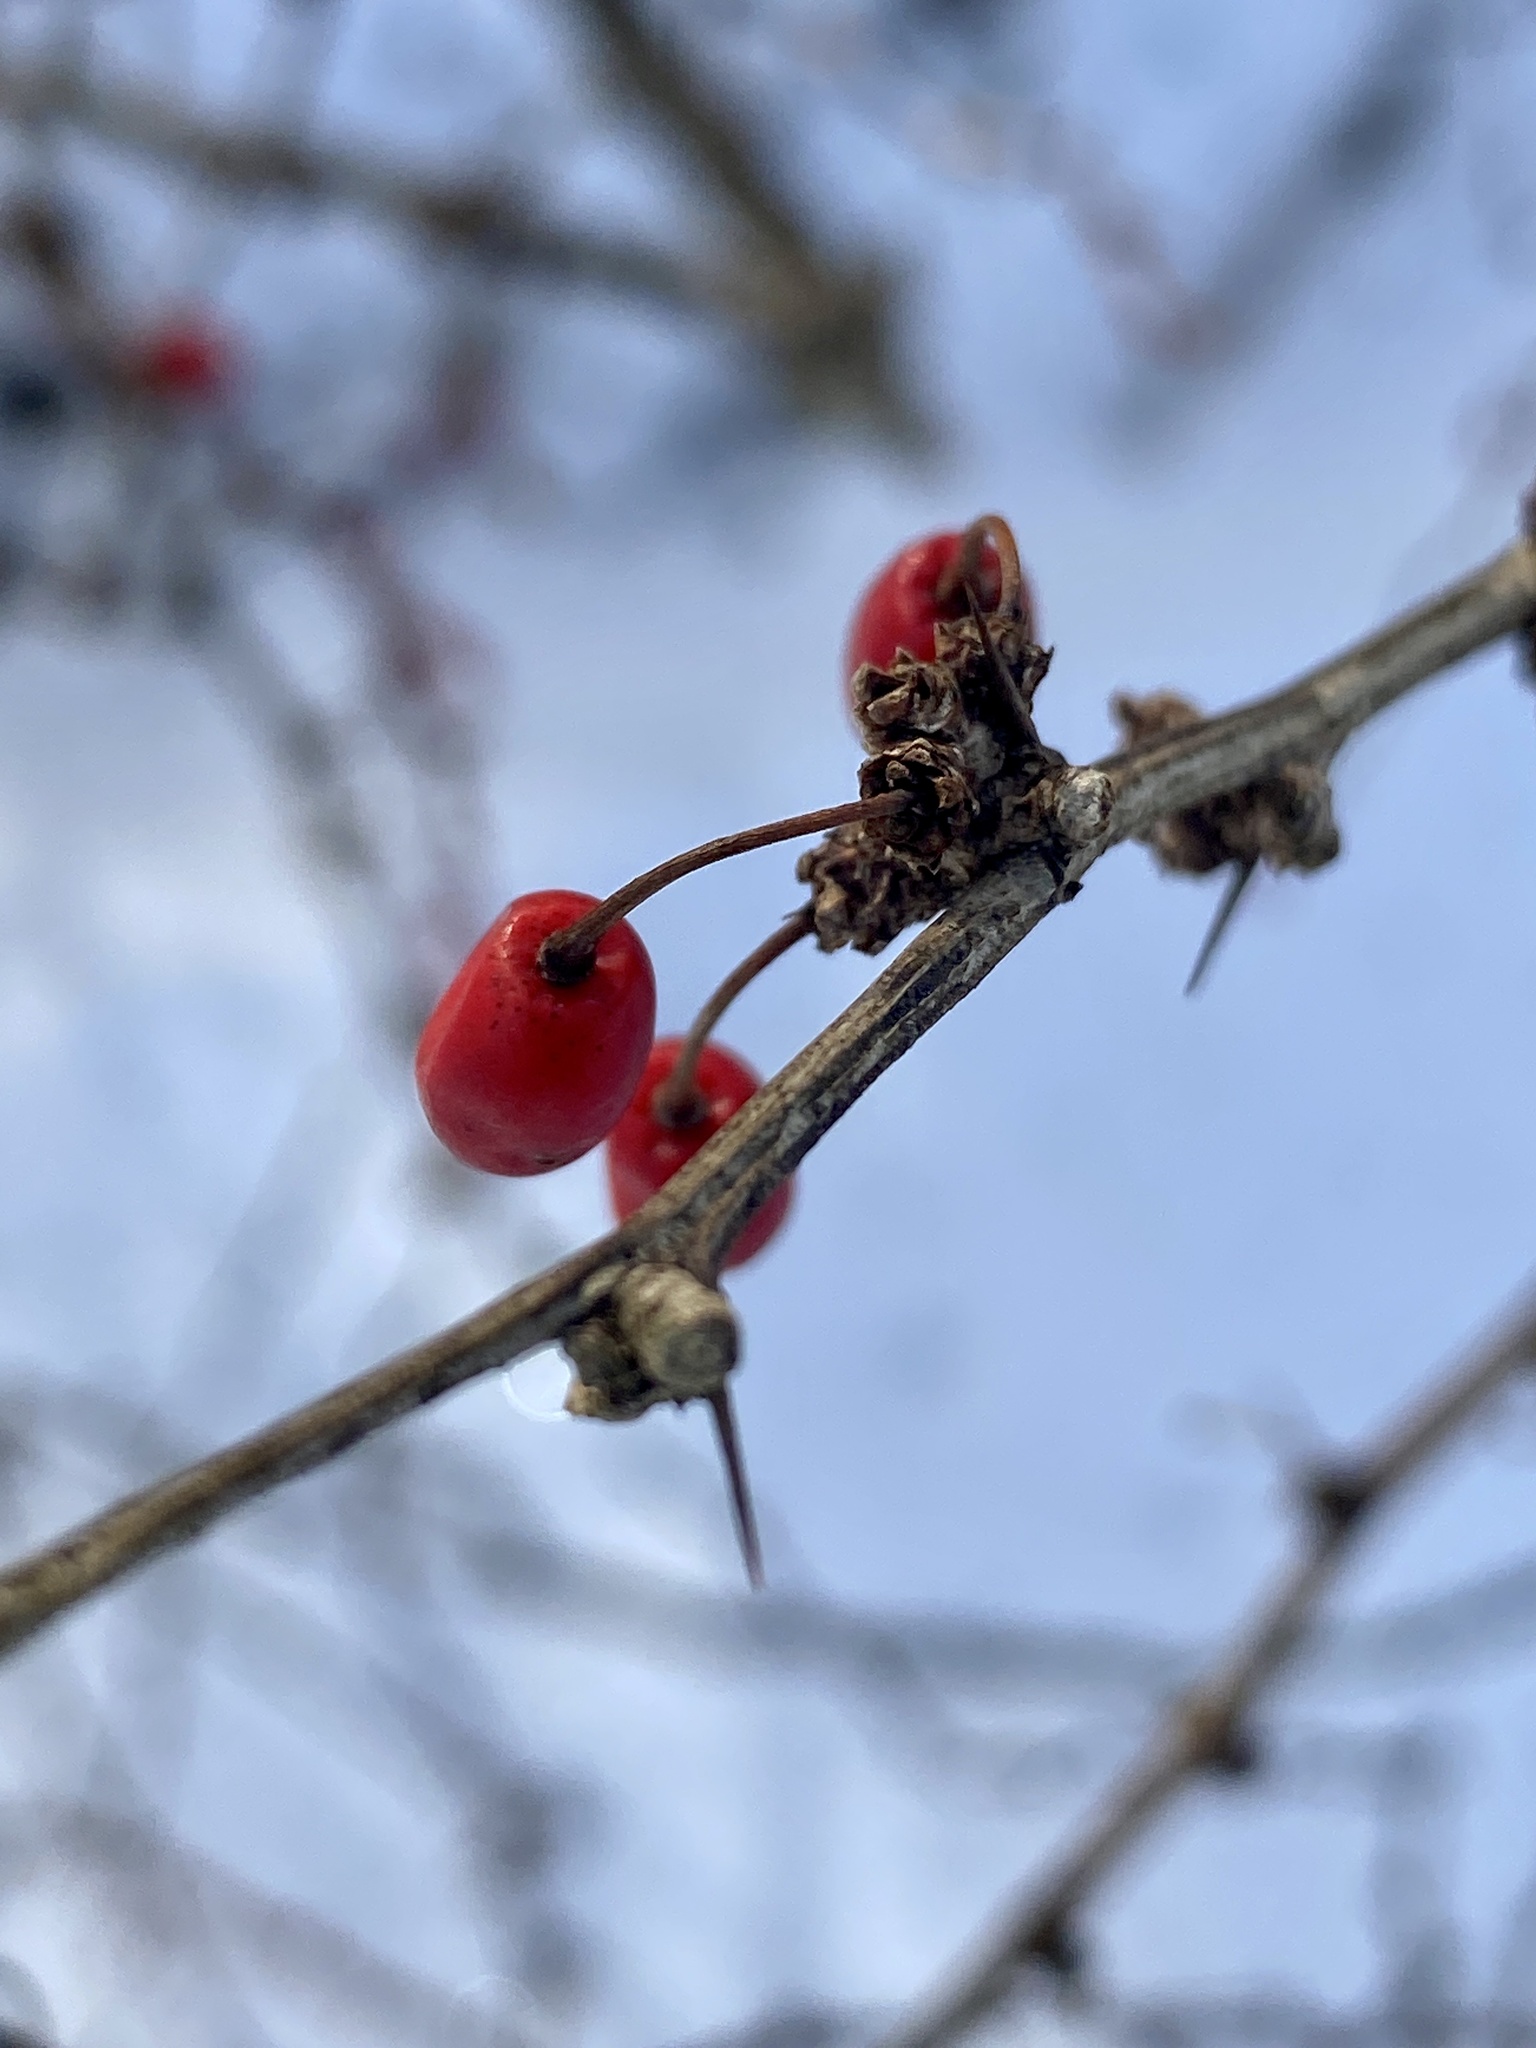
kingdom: Plantae
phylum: Tracheophyta
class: Magnoliopsida
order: Ranunculales
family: Berberidaceae
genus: Berberis
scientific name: Berberis thunbergii
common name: Japanese barberry
